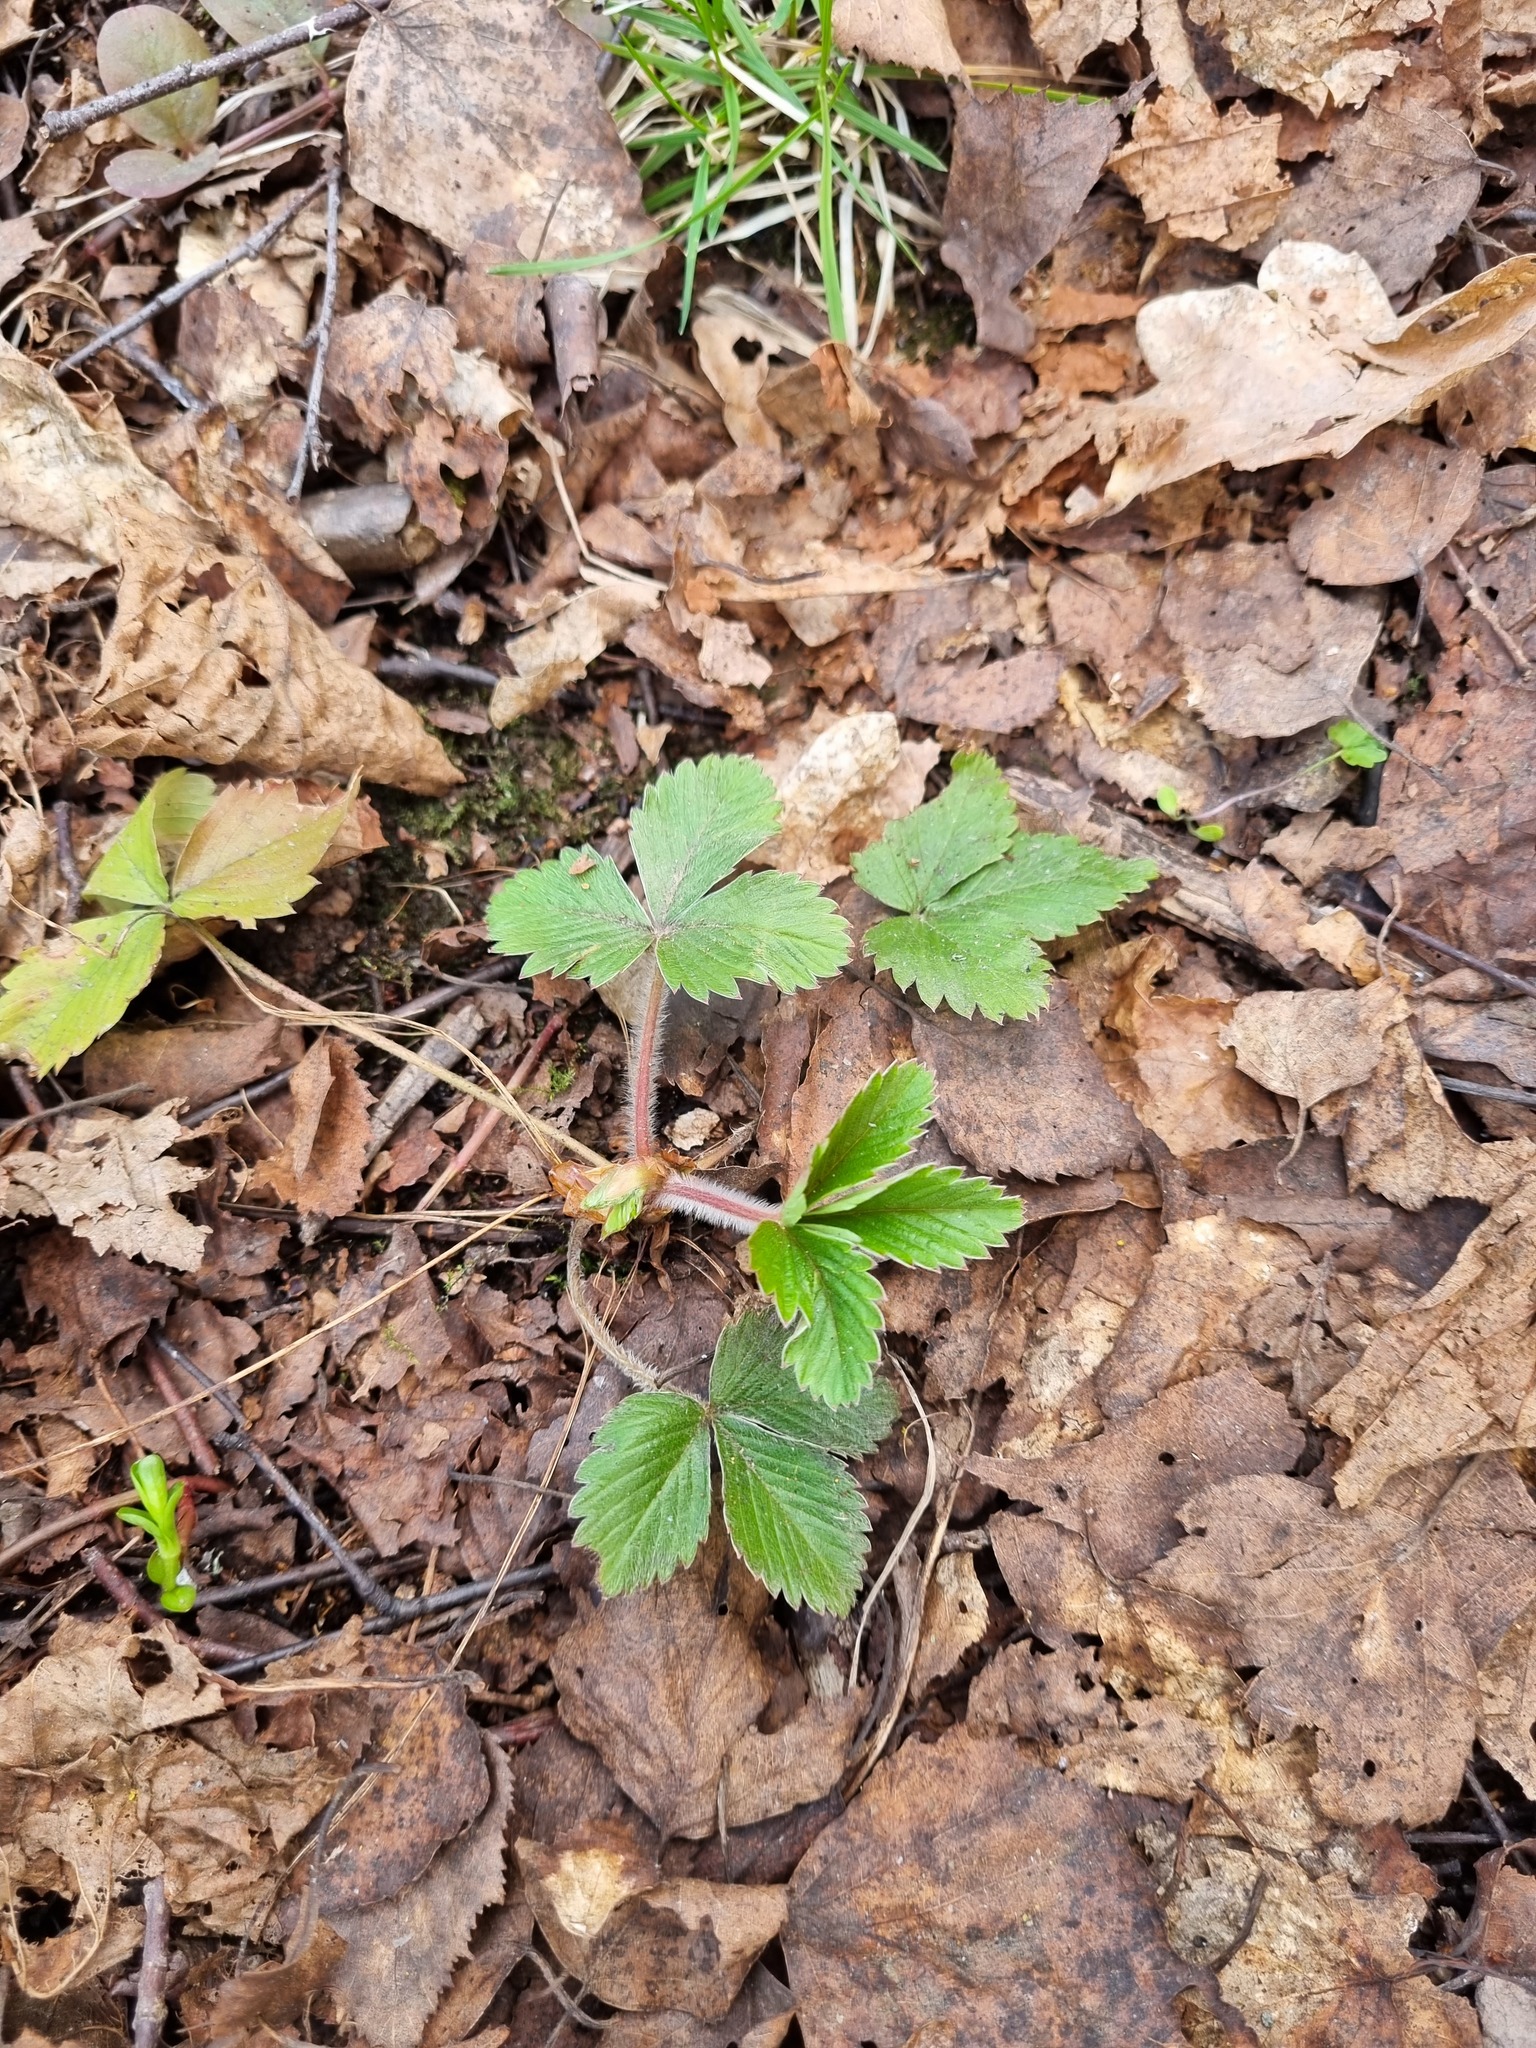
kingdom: Plantae
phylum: Tracheophyta
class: Magnoliopsida
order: Rosales
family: Rosaceae
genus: Fragaria
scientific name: Fragaria vesca
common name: Wild strawberry
